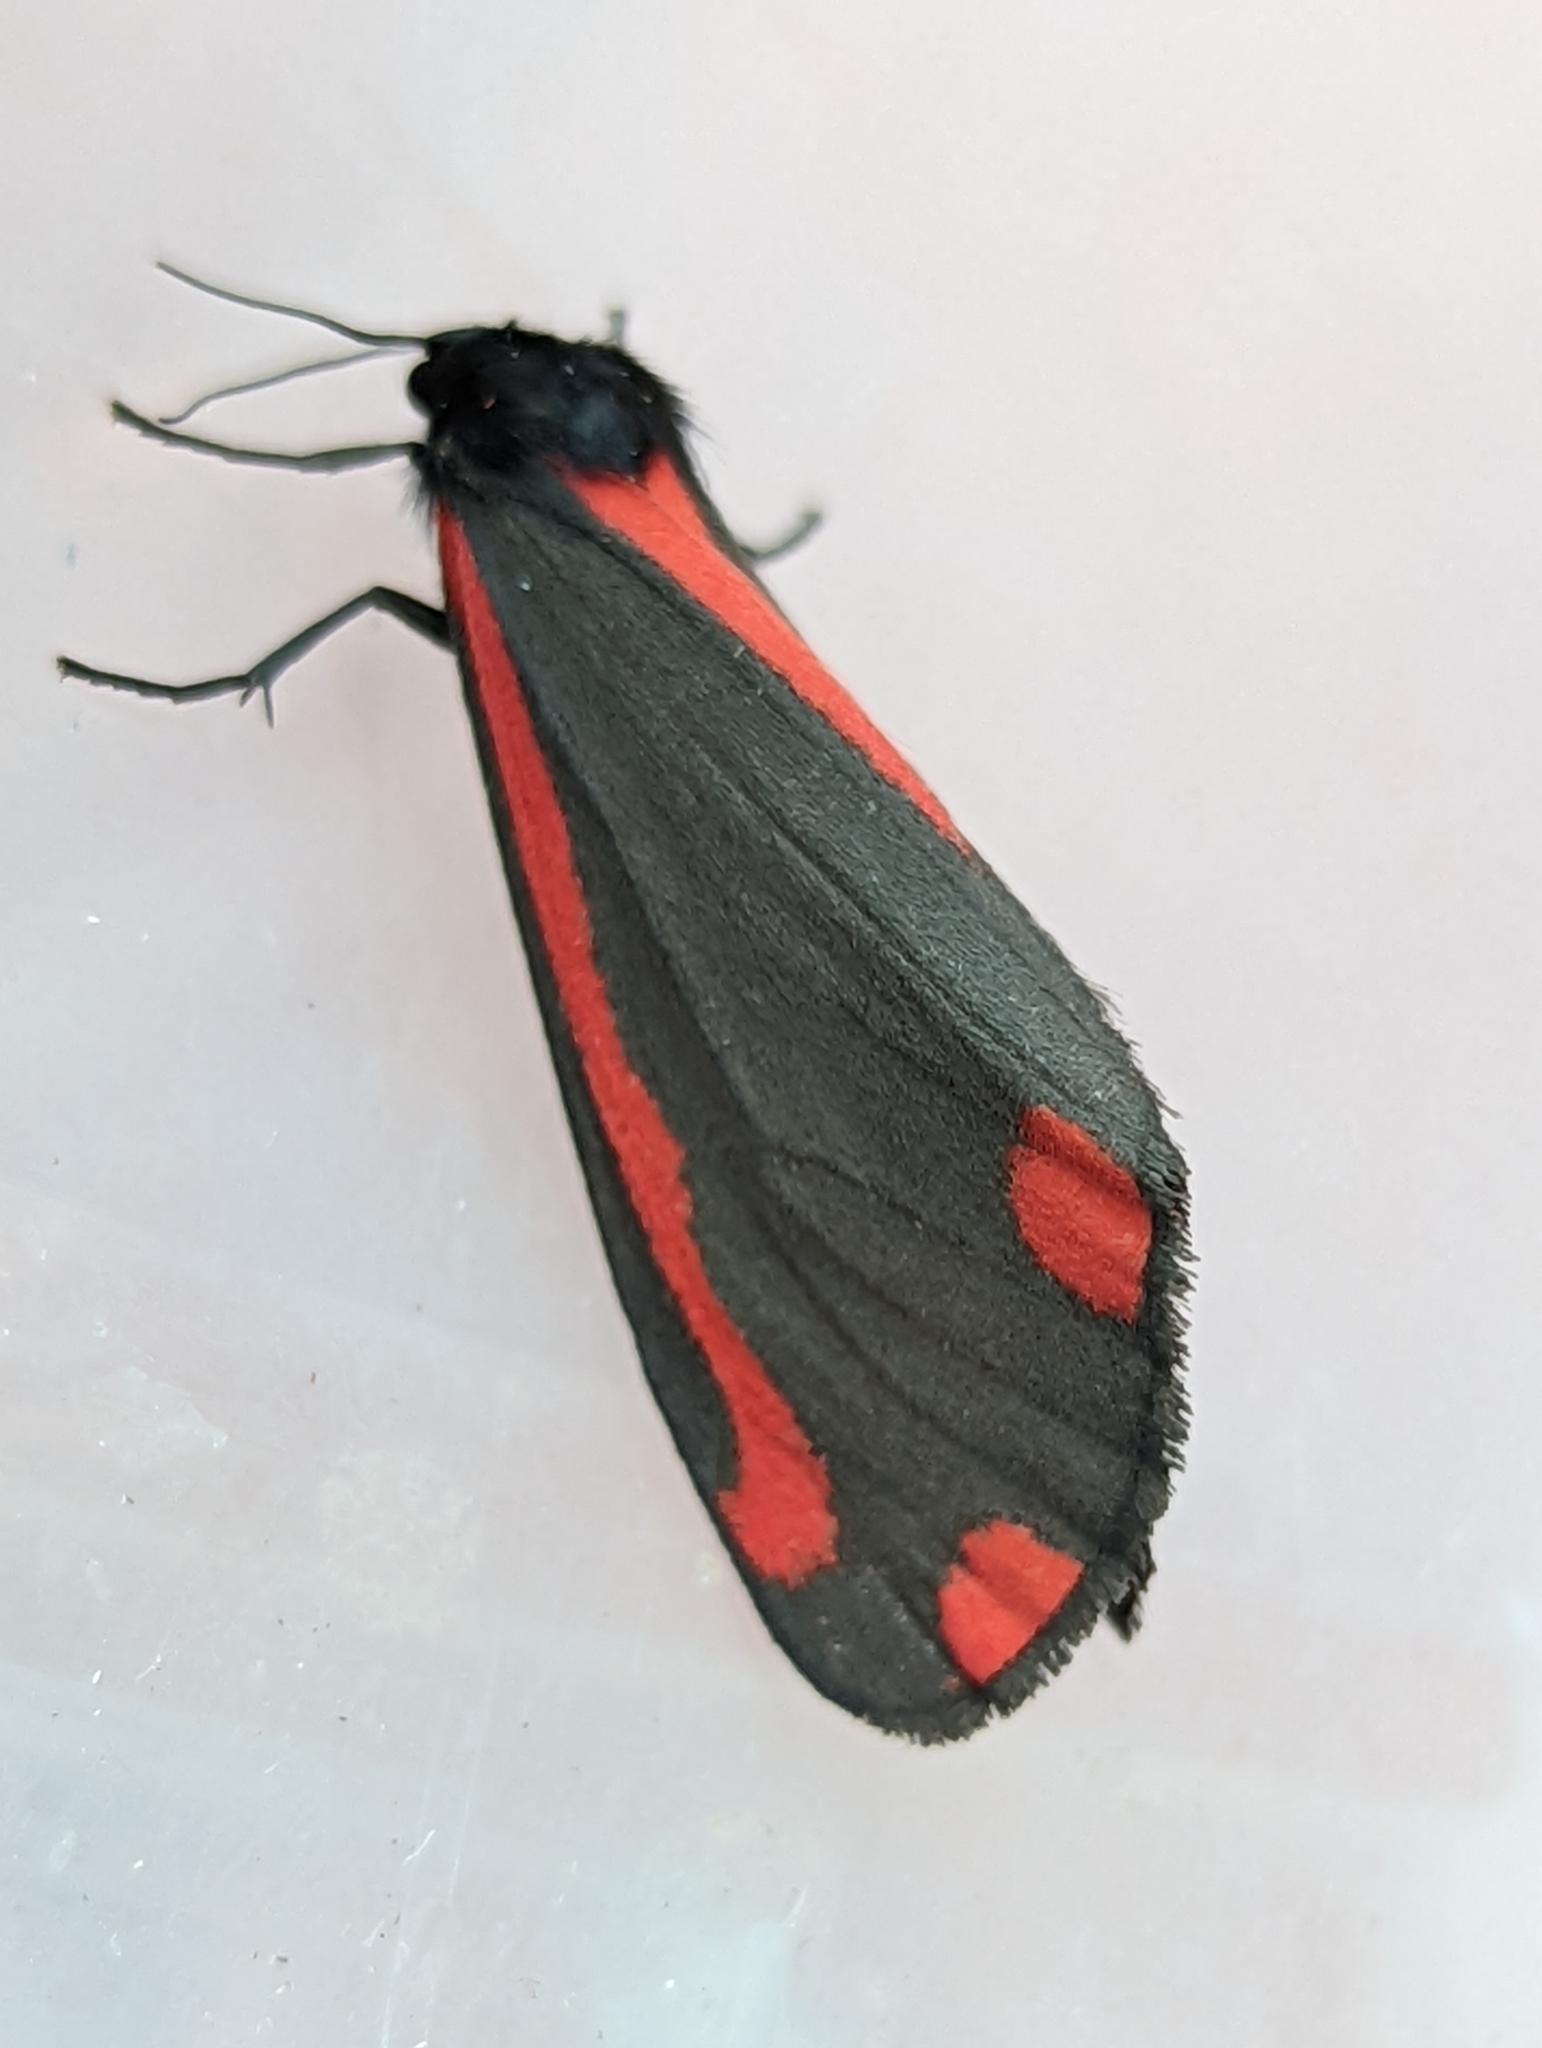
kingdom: Animalia
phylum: Arthropoda
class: Insecta
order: Lepidoptera
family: Erebidae
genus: Tyria
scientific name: Tyria jacobaeae
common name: Cinnabar
